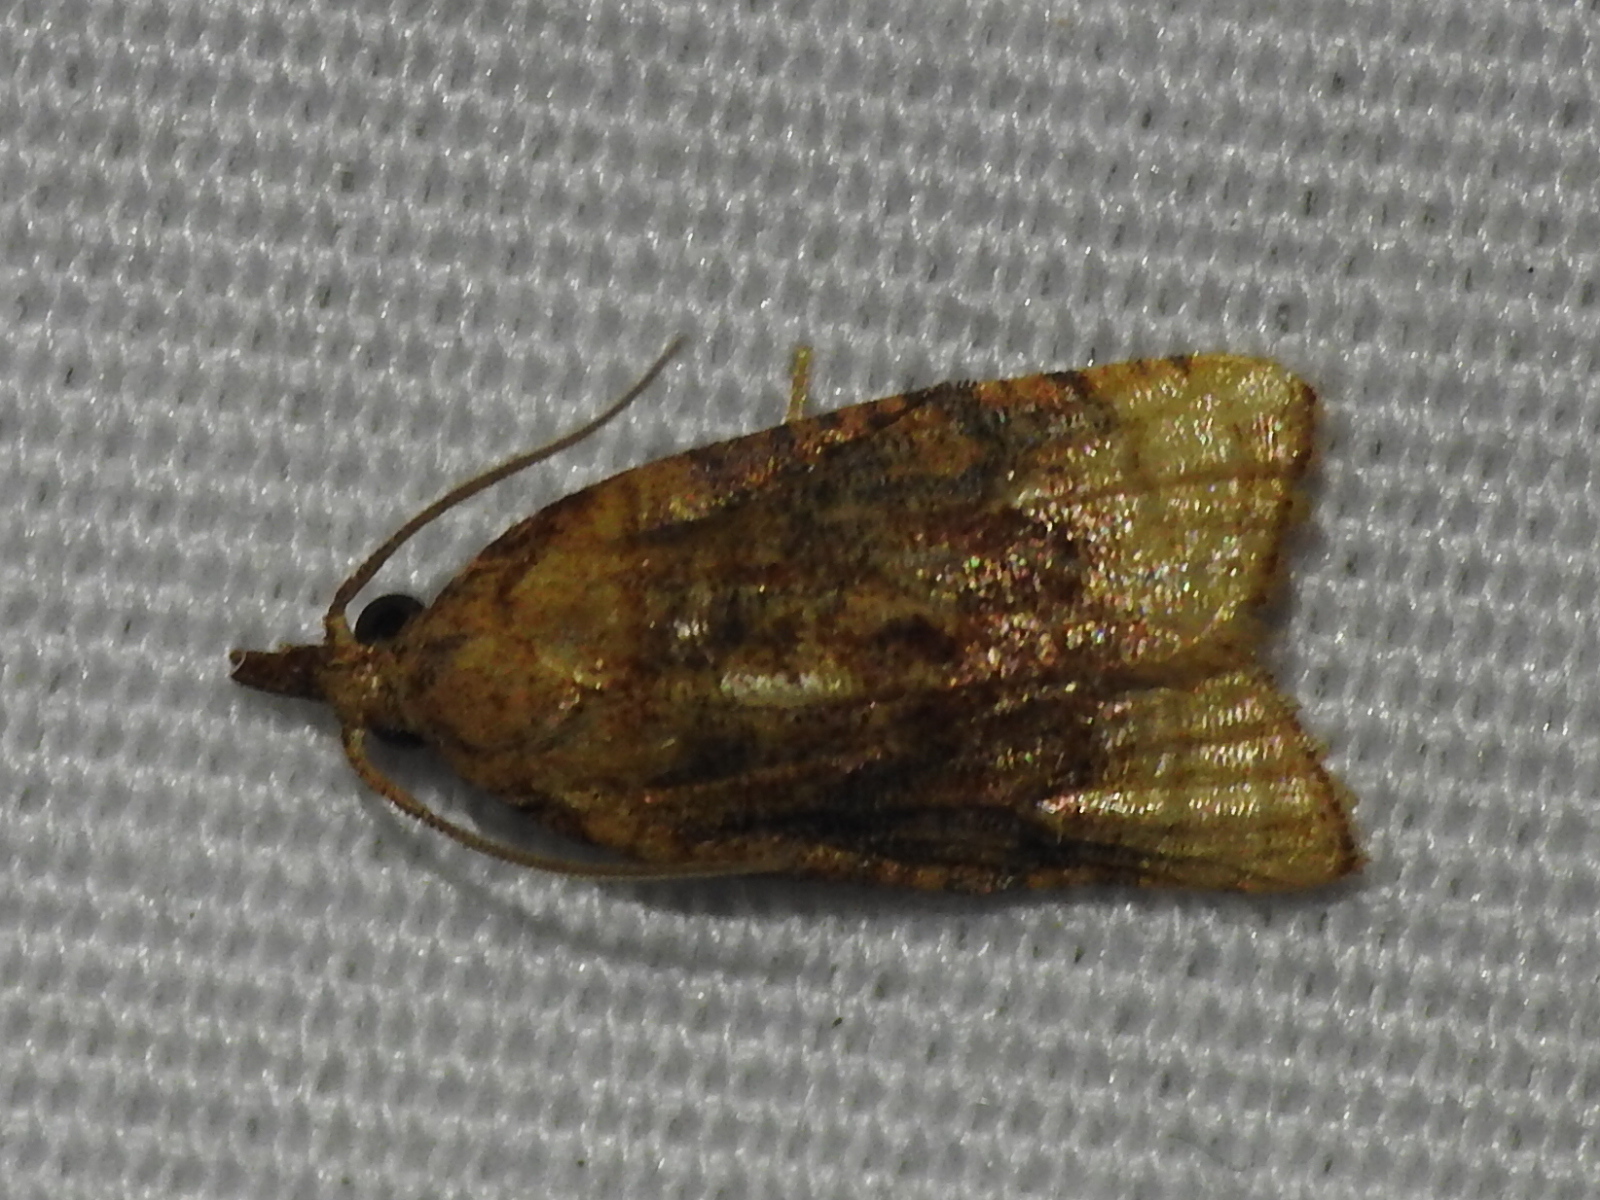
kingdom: Animalia
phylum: Arthropoda
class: Insecta
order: Lepidoptera
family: Tortricidae
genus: Platynota
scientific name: Platynota flavedana
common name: Black-shaded platynota moth
